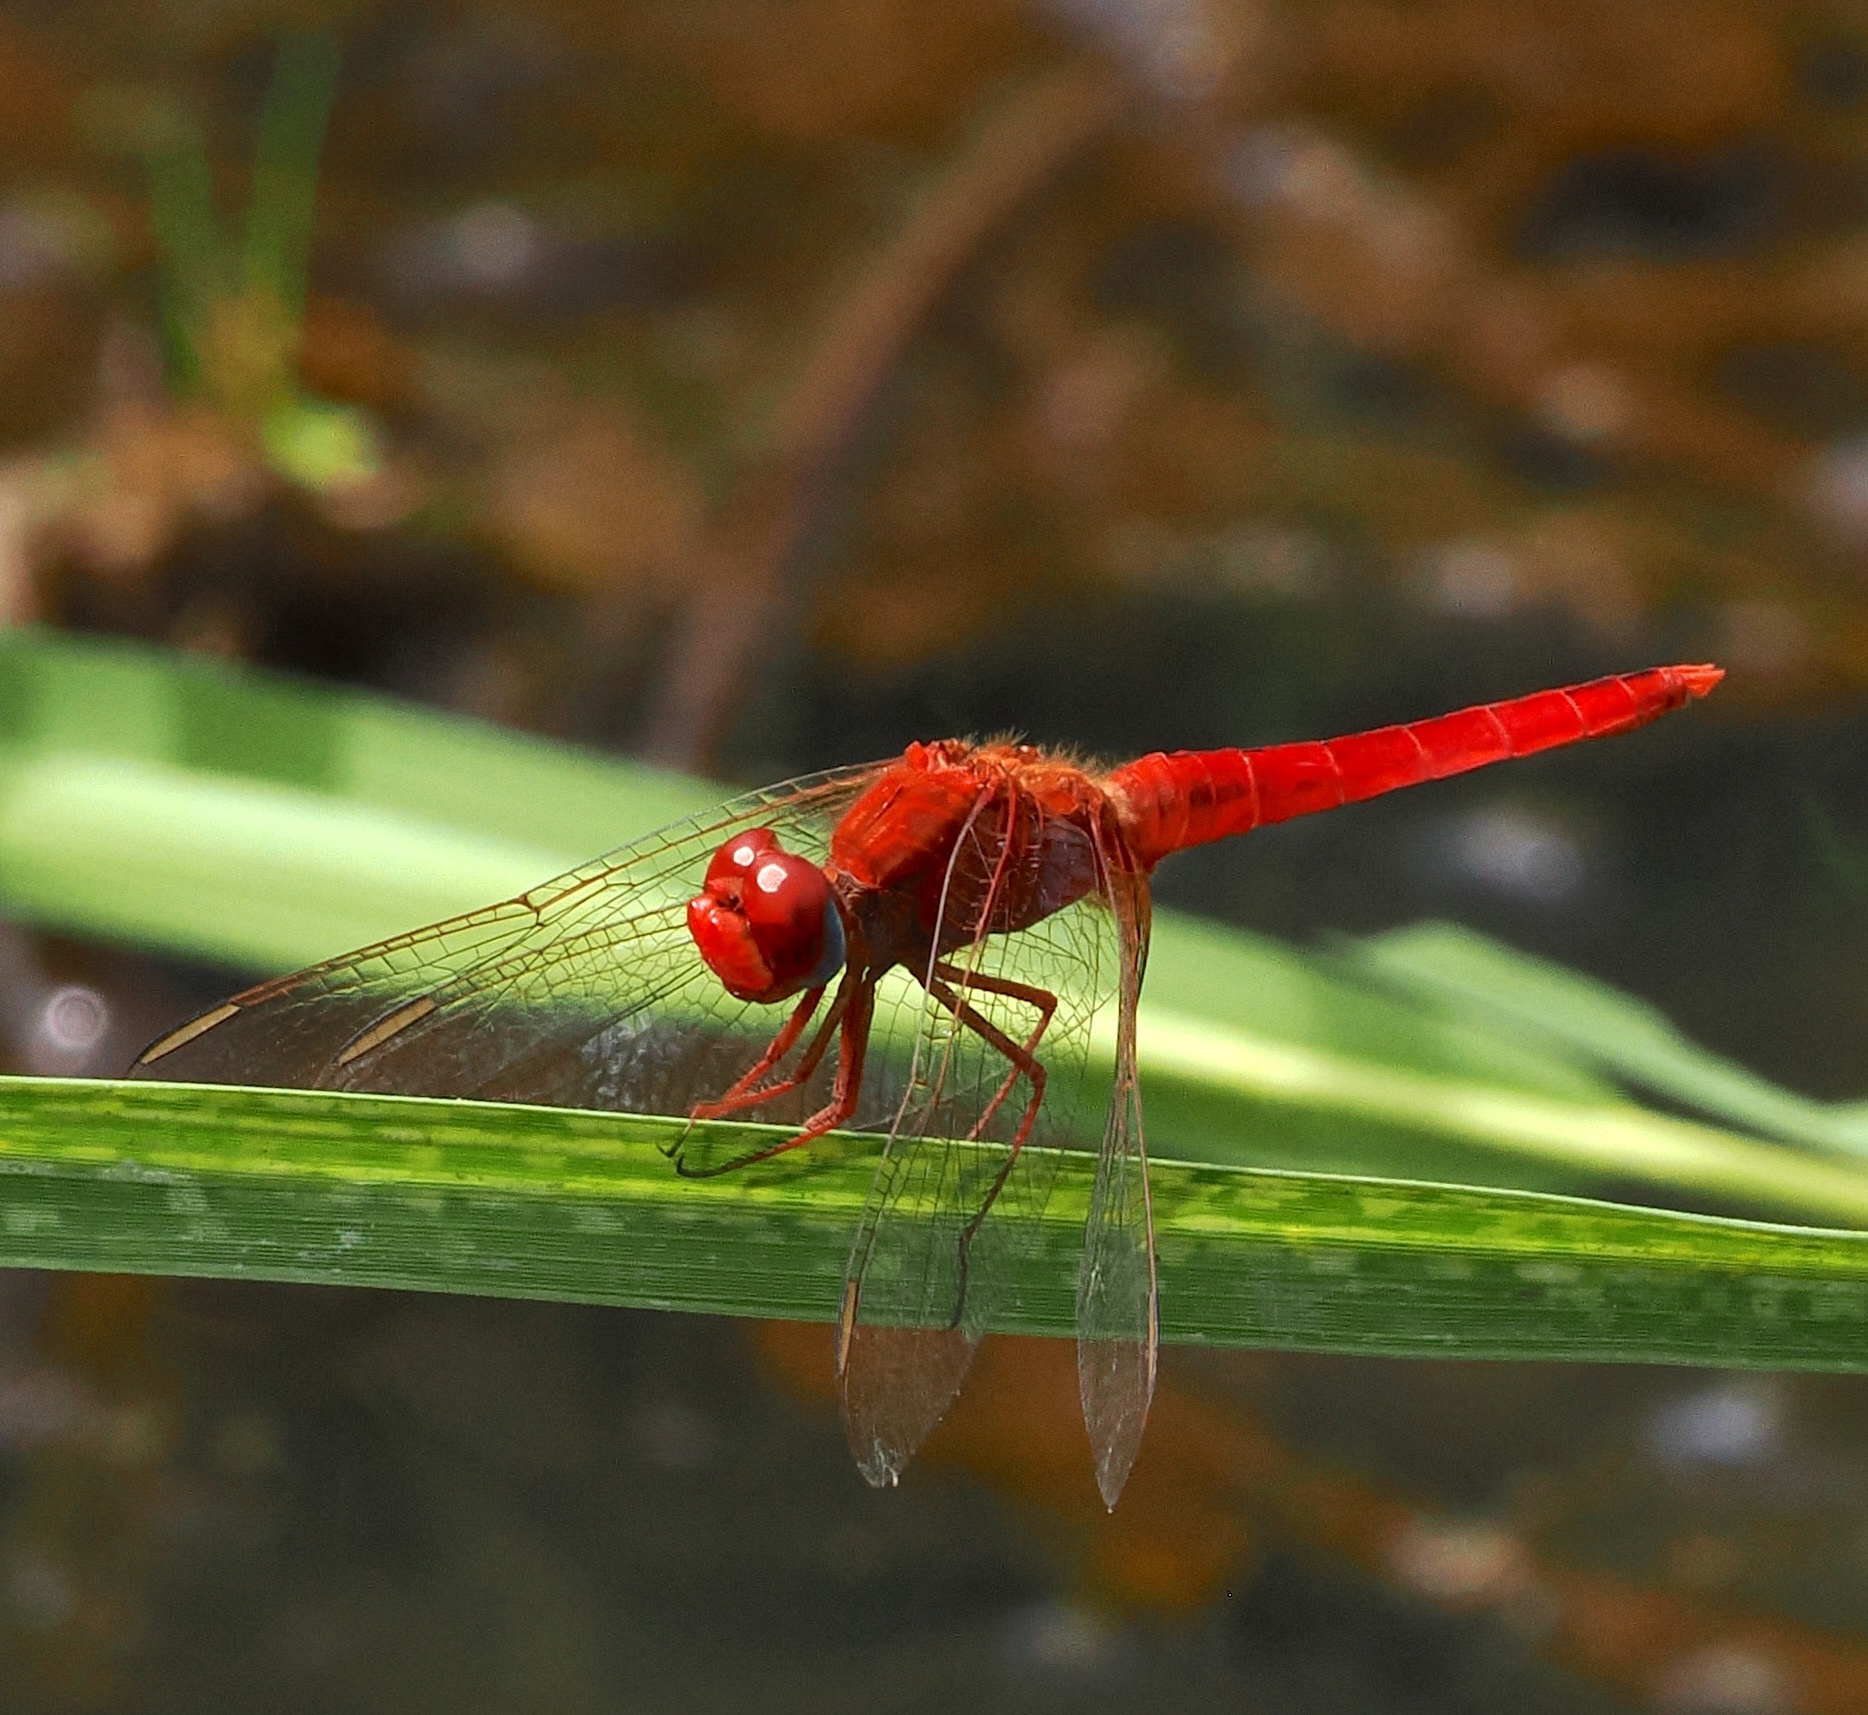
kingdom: Animalia
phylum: Arthropoda
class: Insecta
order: Odonata
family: Libellulidae
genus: Crocothemis
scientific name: Crocothemis erythraea
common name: Scarlet dragonfly
